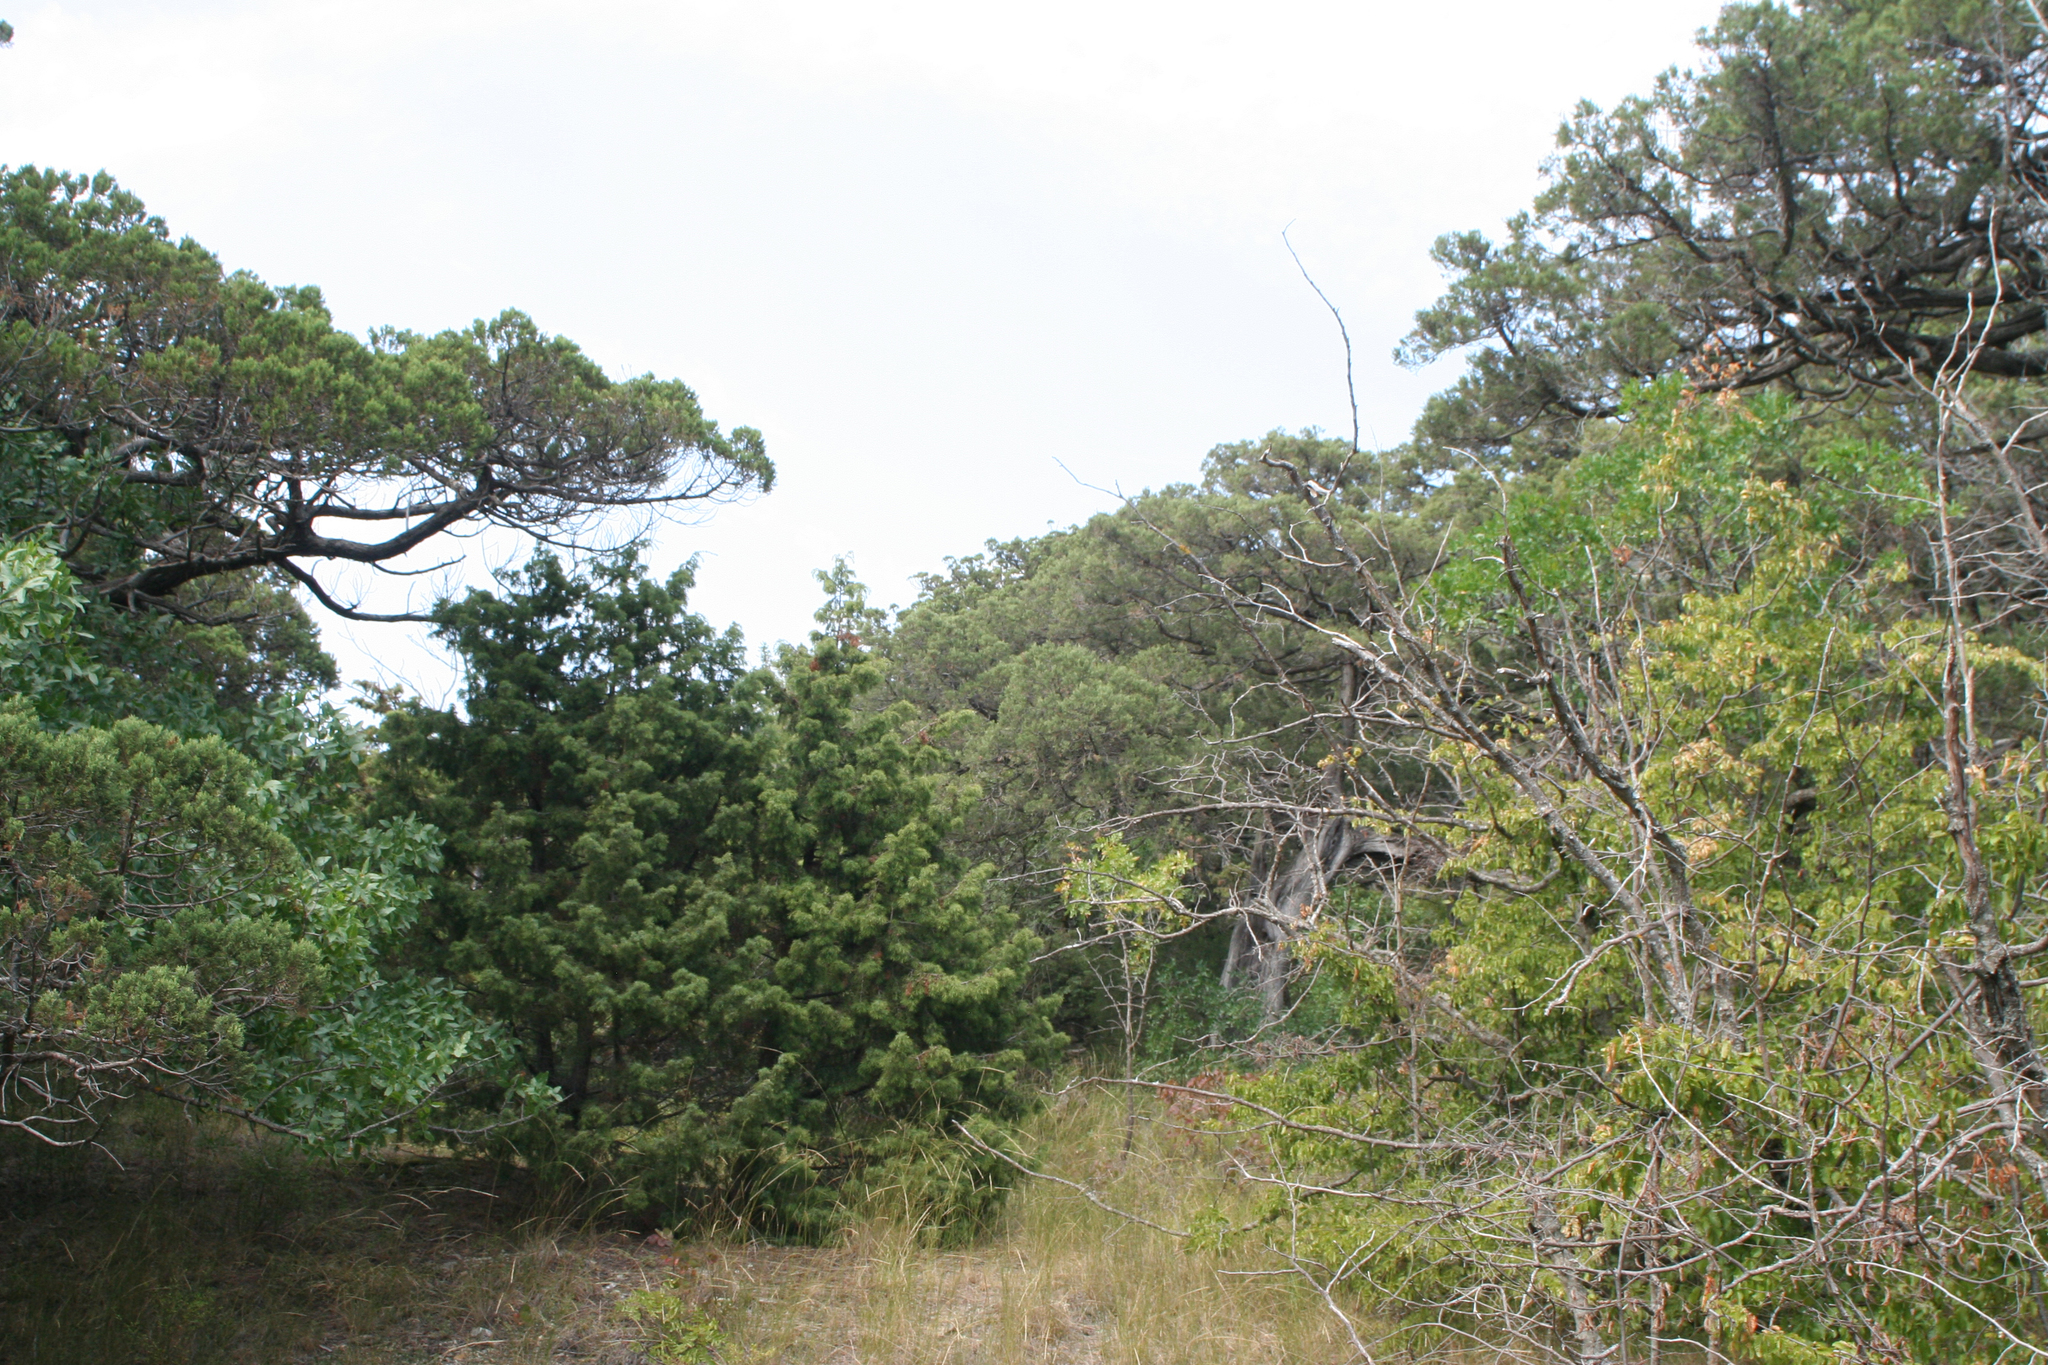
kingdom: Plantae
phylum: Tracheophyta
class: Pinopsida
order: Pinales
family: Cupressaceae
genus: Juniperus
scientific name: Juniperus oxycedrus
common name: Prickly juniper
